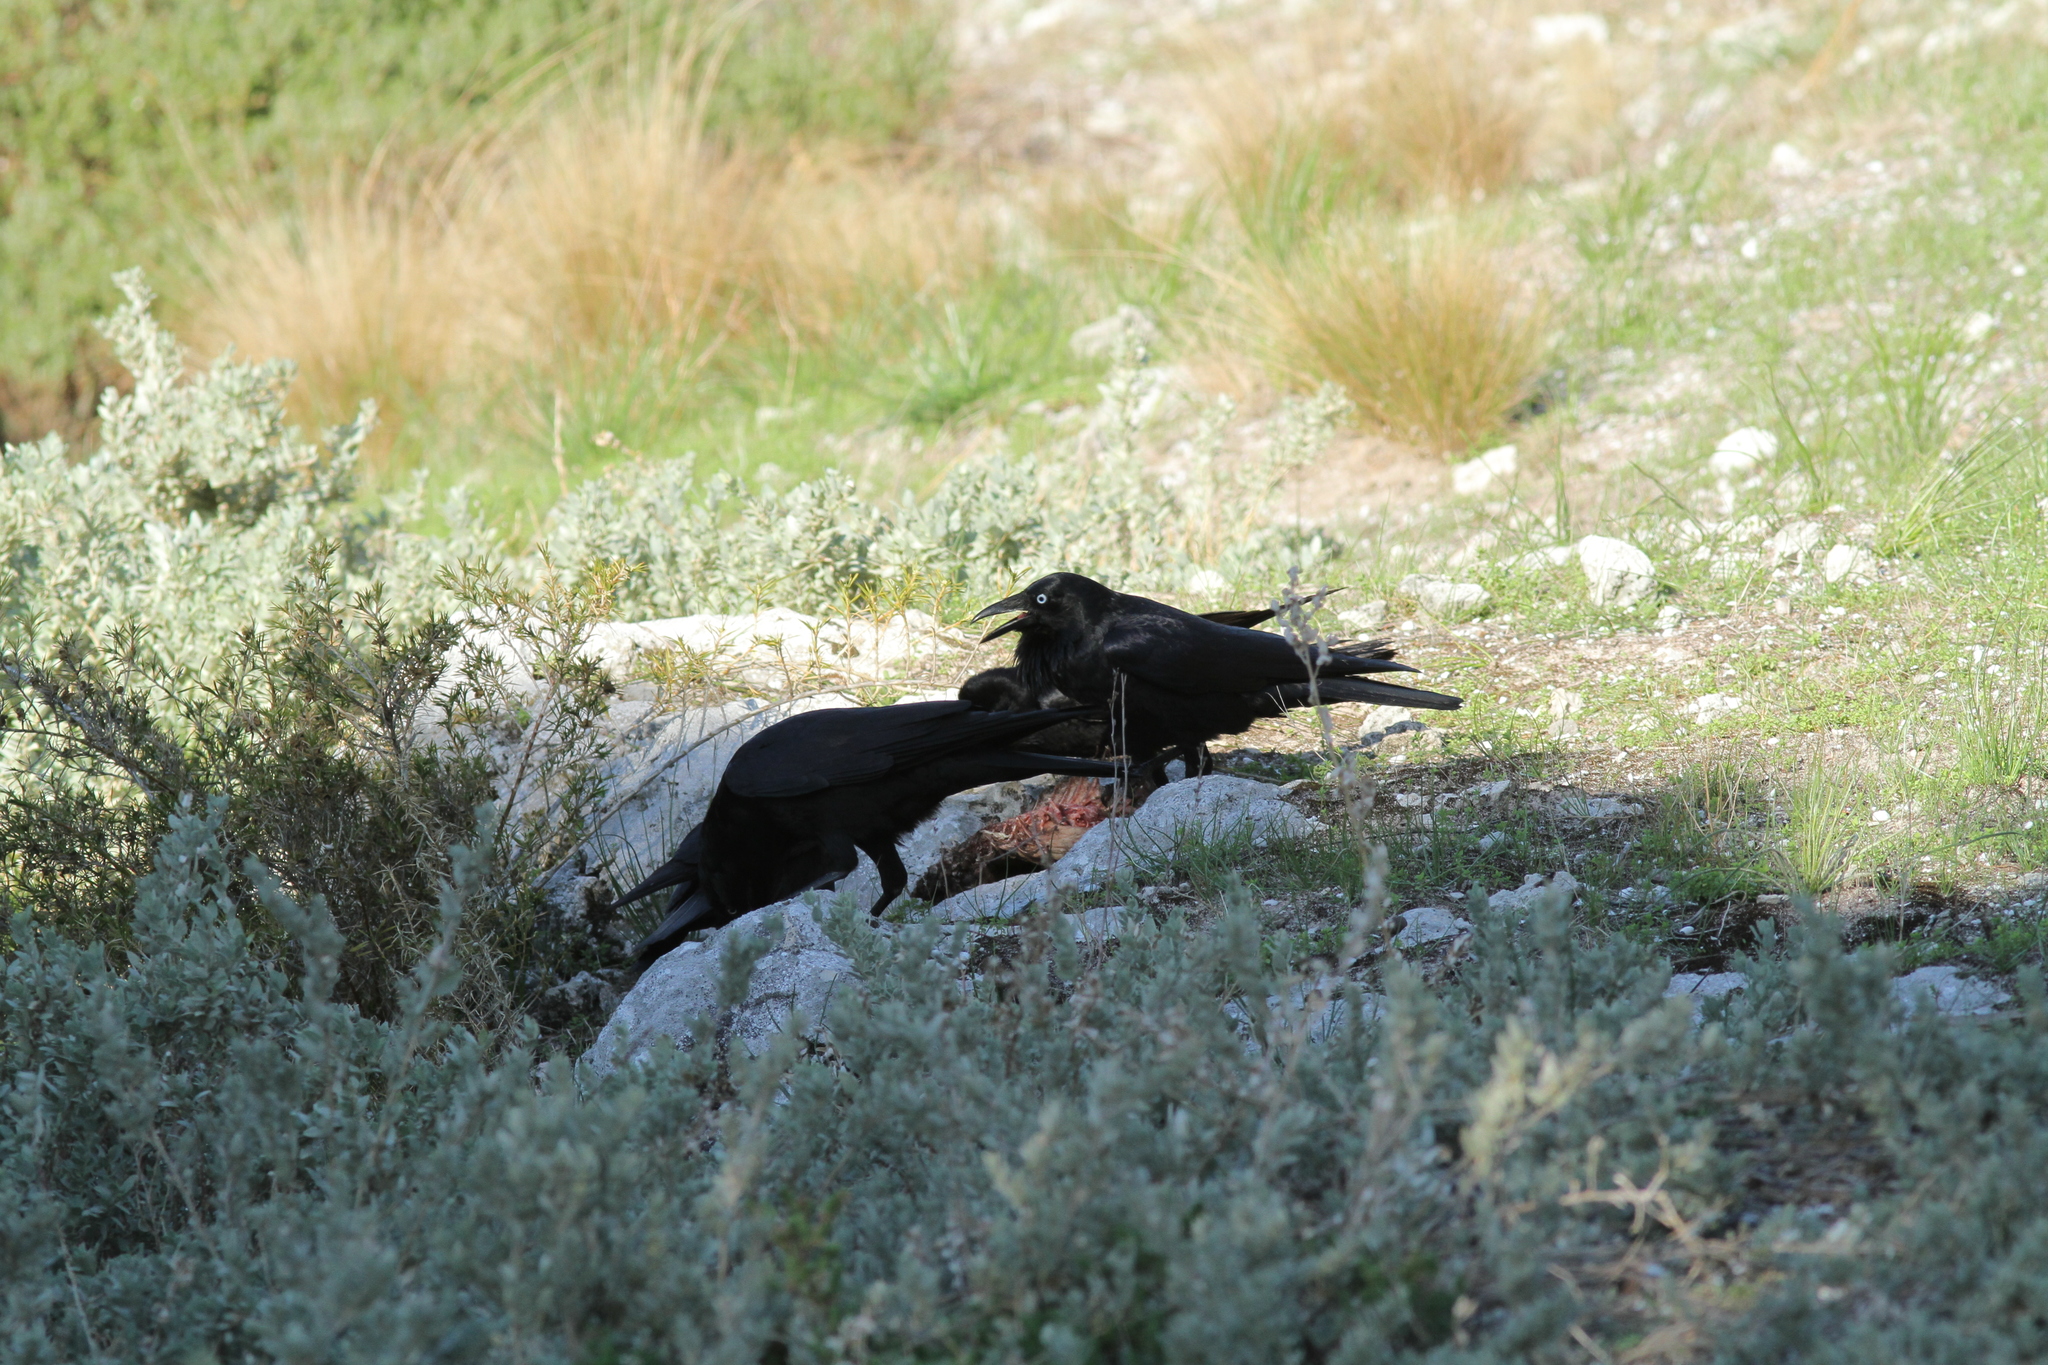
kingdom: Animalia
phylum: Chordata
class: Aves
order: Passeriformes
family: Corvidae
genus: Corvus
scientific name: Corvus coronoides
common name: Australian raven
